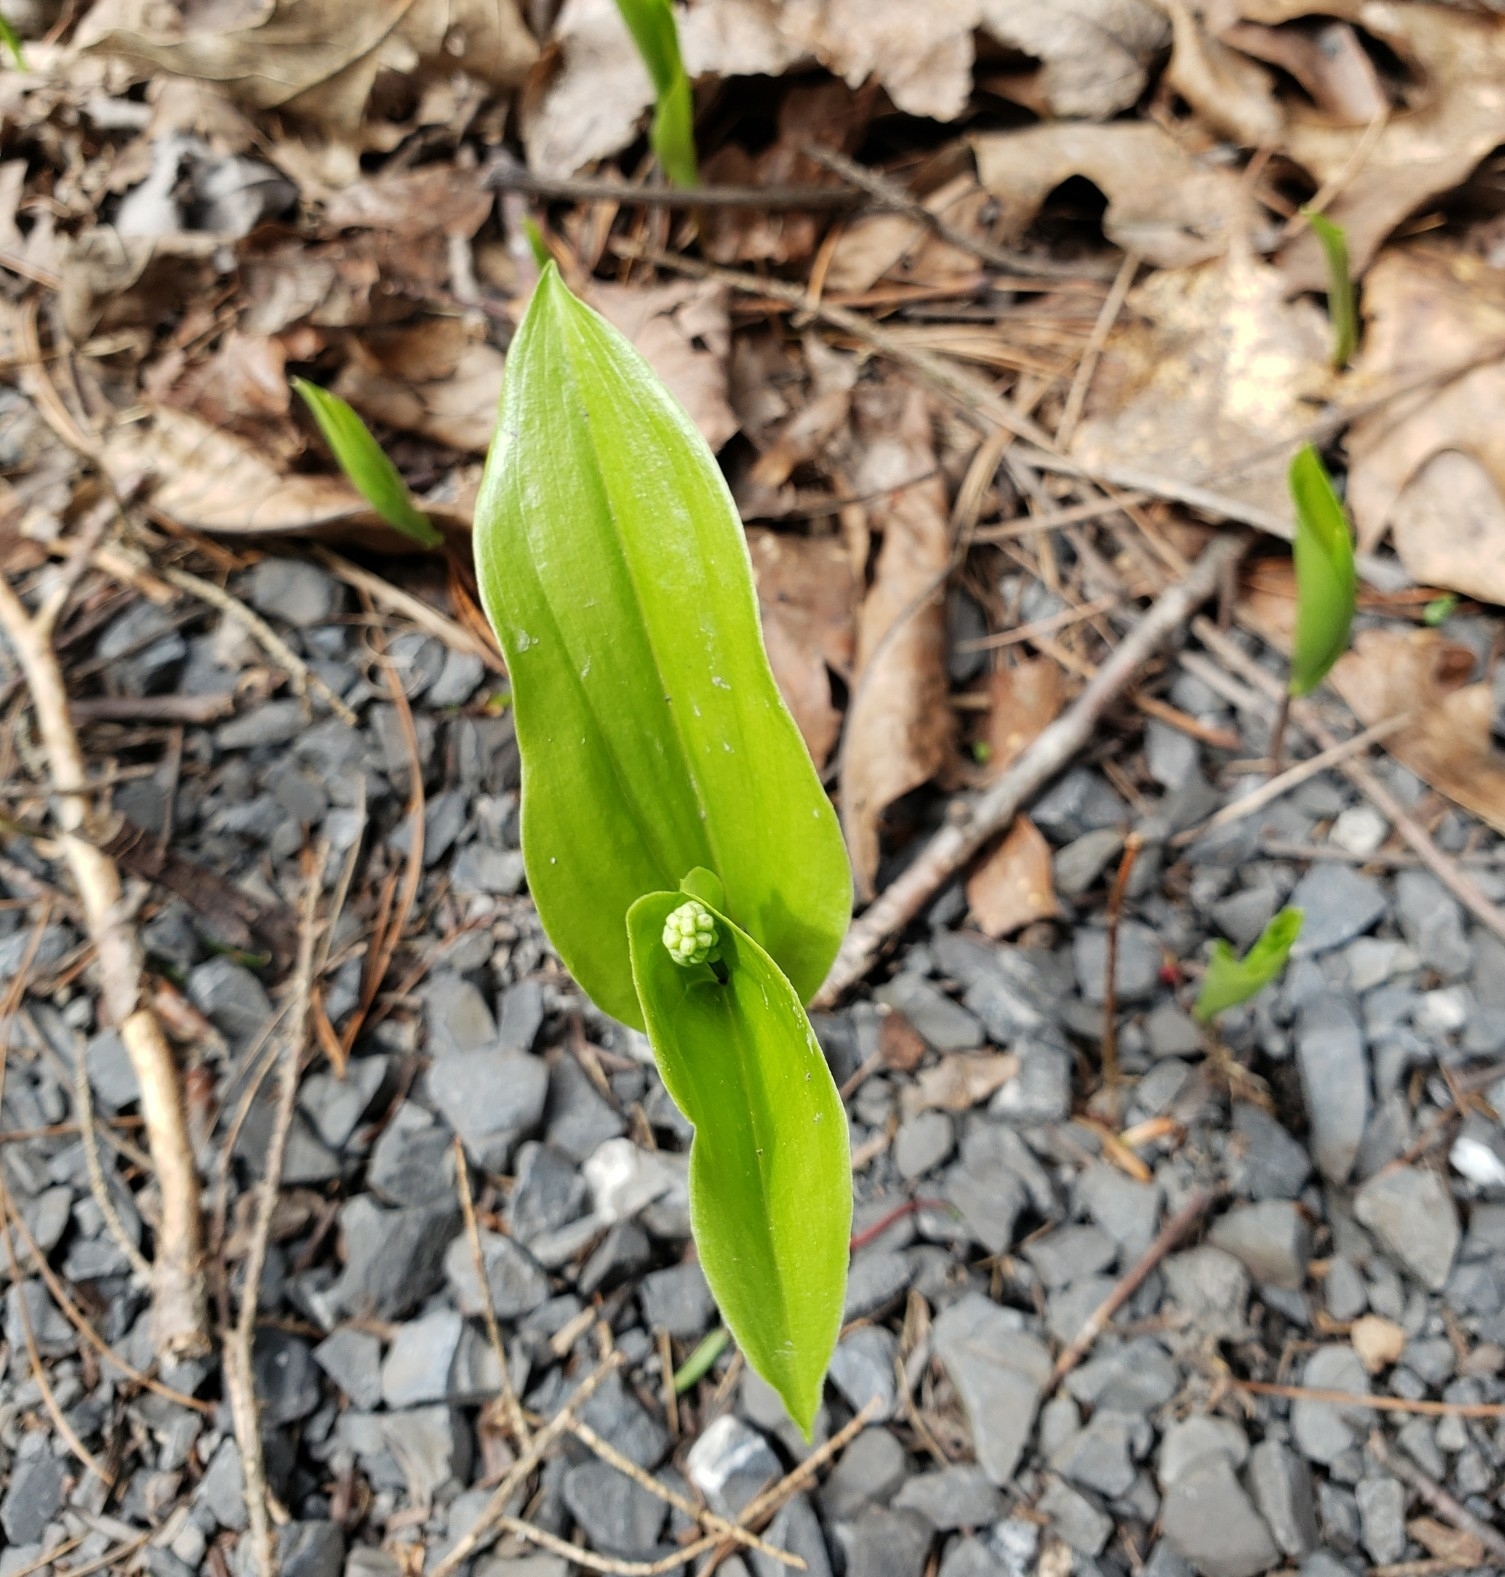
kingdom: Plantae
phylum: Tracheophyta
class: Liliopsida
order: Asparagales
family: Asparagaceae
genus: Maianthemum
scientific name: Maianthemum canadense
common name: False lily-of-the-valley
